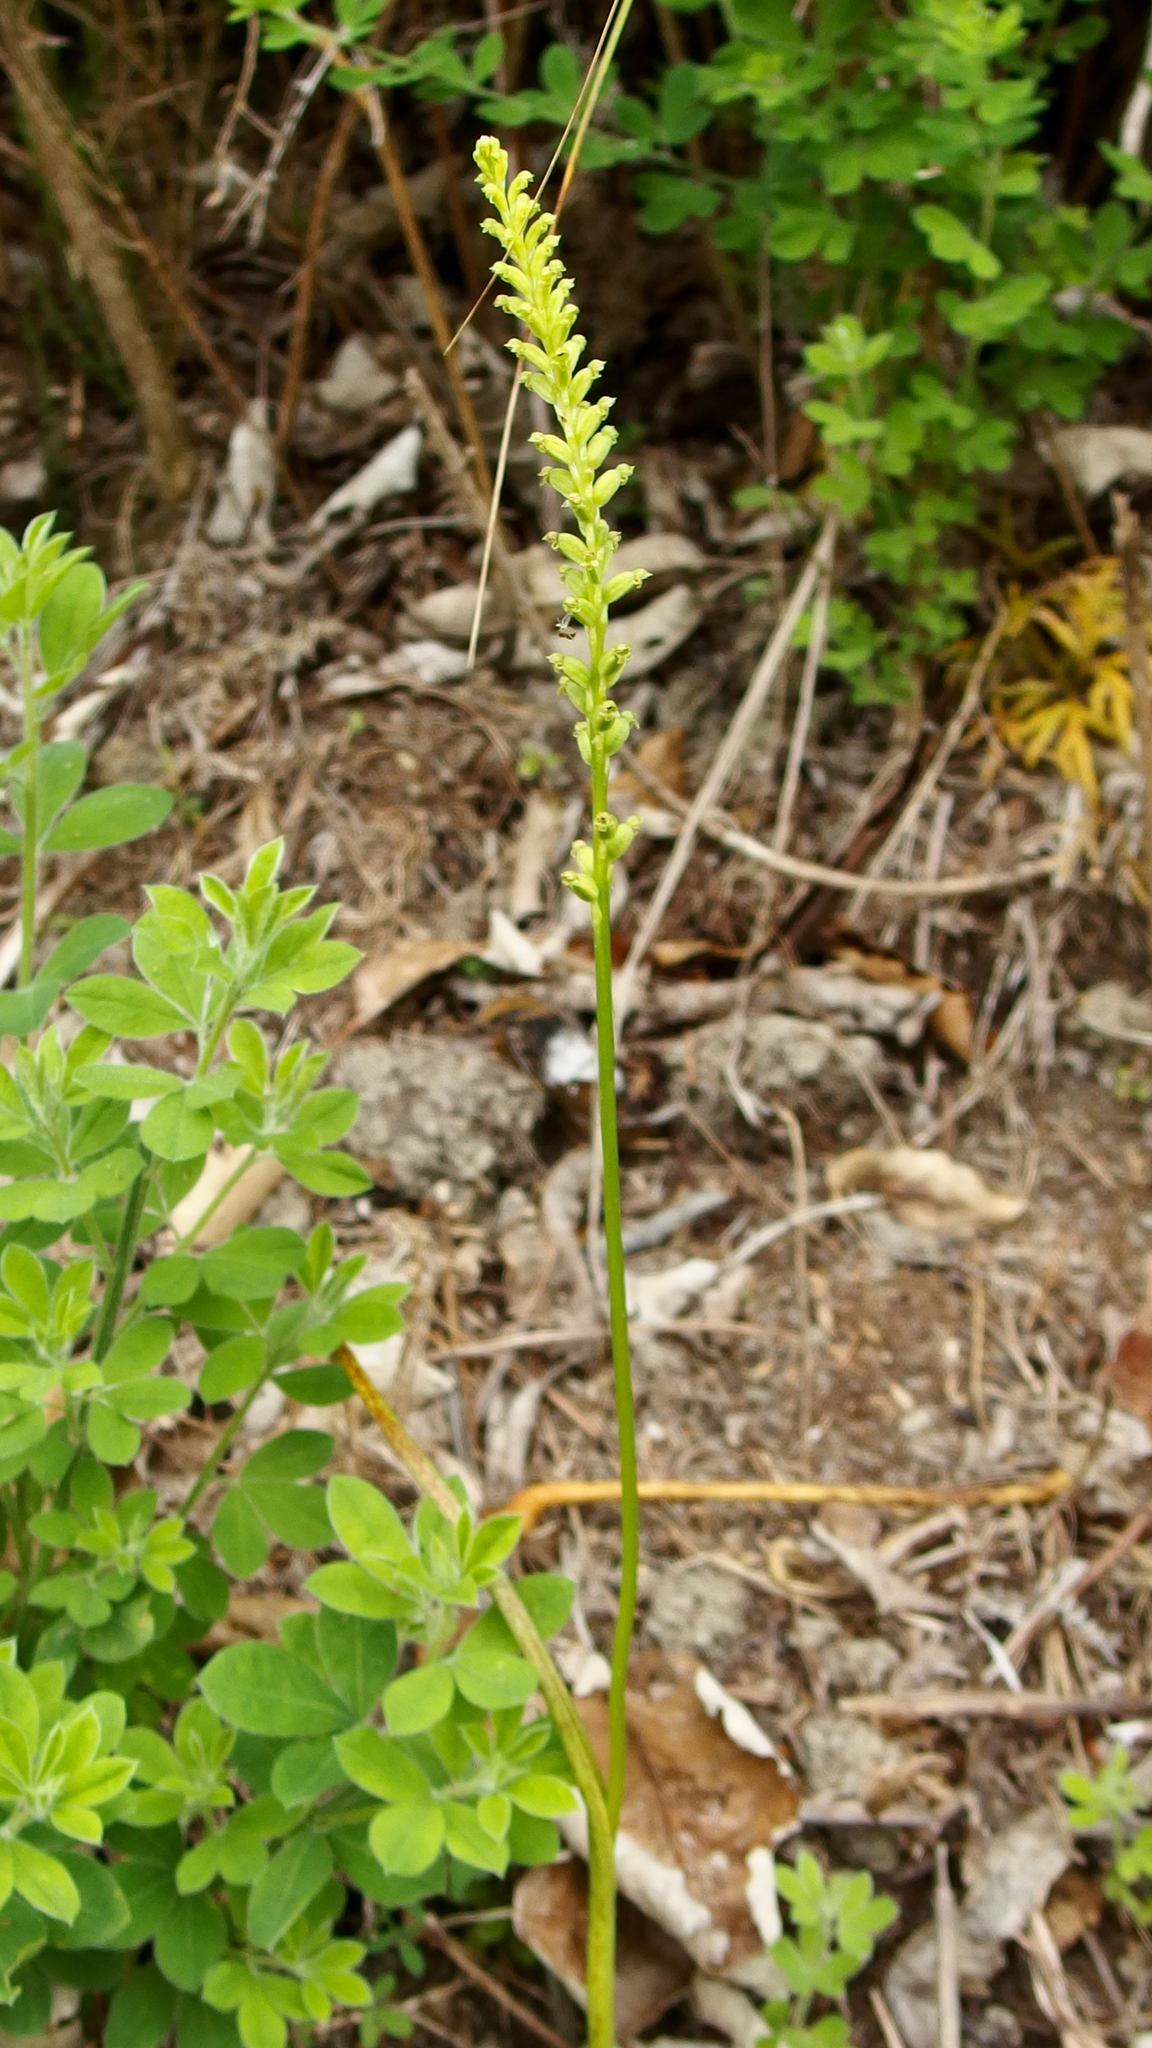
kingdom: Plantae
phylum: Tracheophyta
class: Liliopsida
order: Asparagales
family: Orchidaceae
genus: Microtis
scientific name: Microtis unifolia
